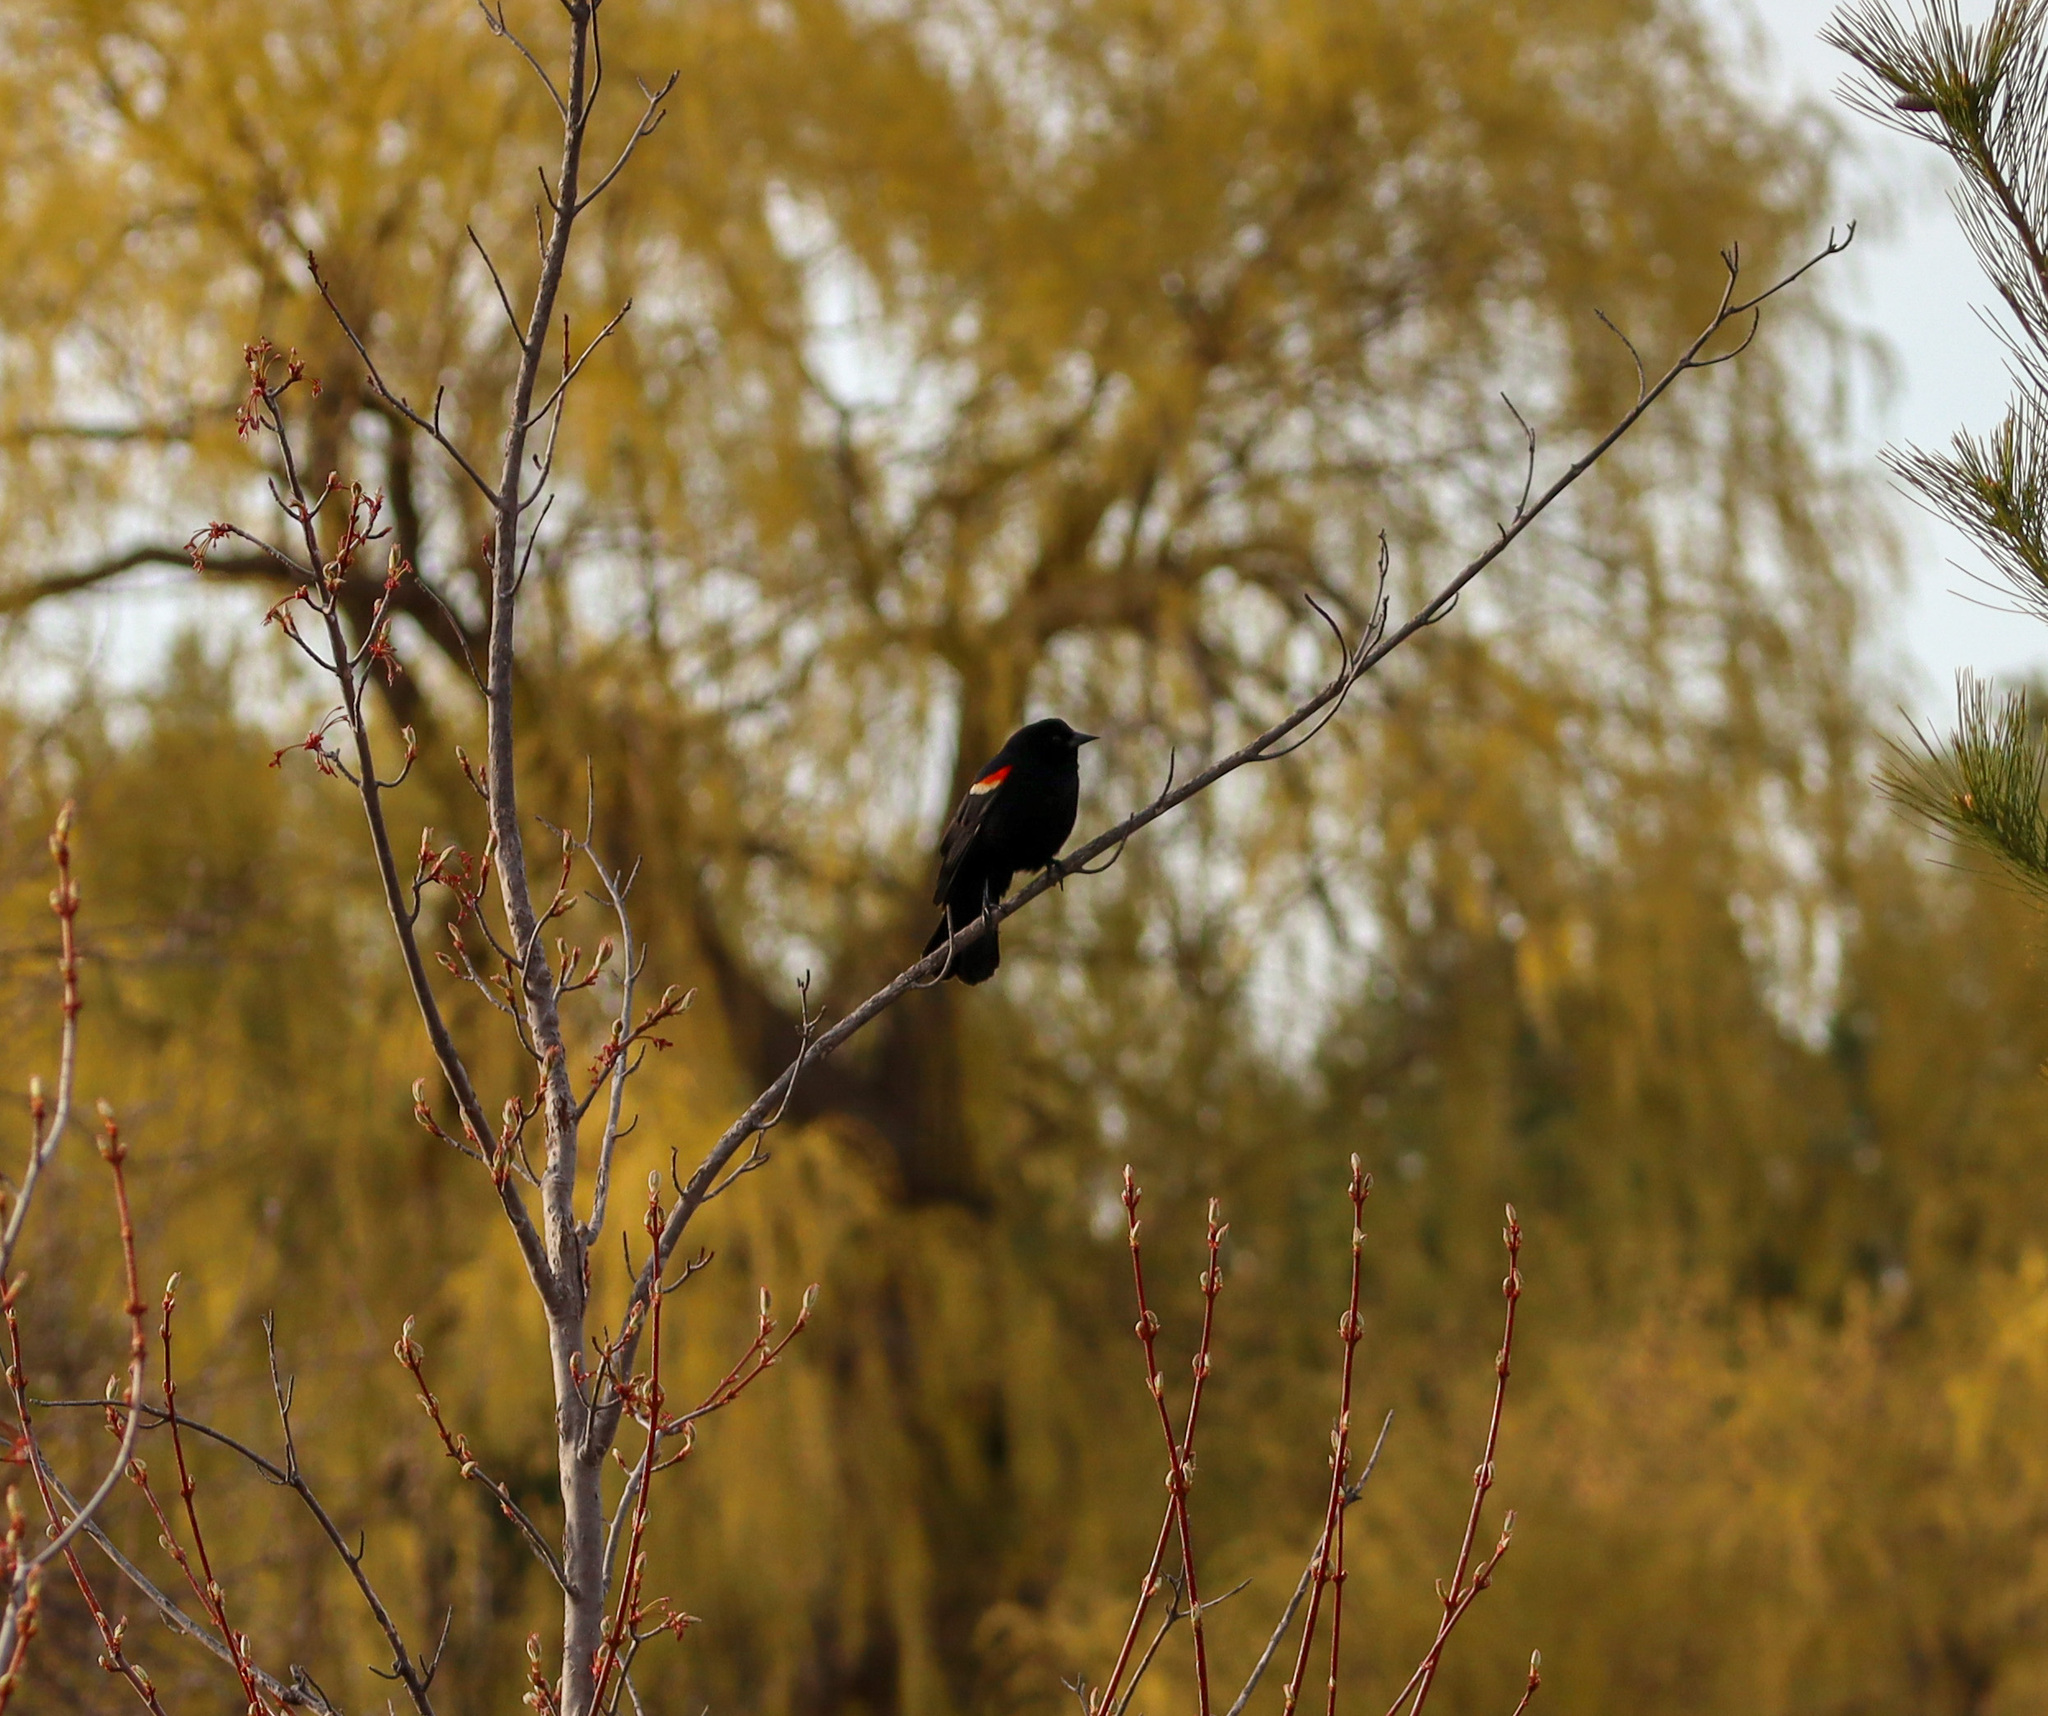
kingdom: Animalia
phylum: Chordata
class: Aves
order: Passeriformes
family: Icteridae
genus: Agelaius
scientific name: Agelaius phoeniceus
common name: Red-winged blackbird
